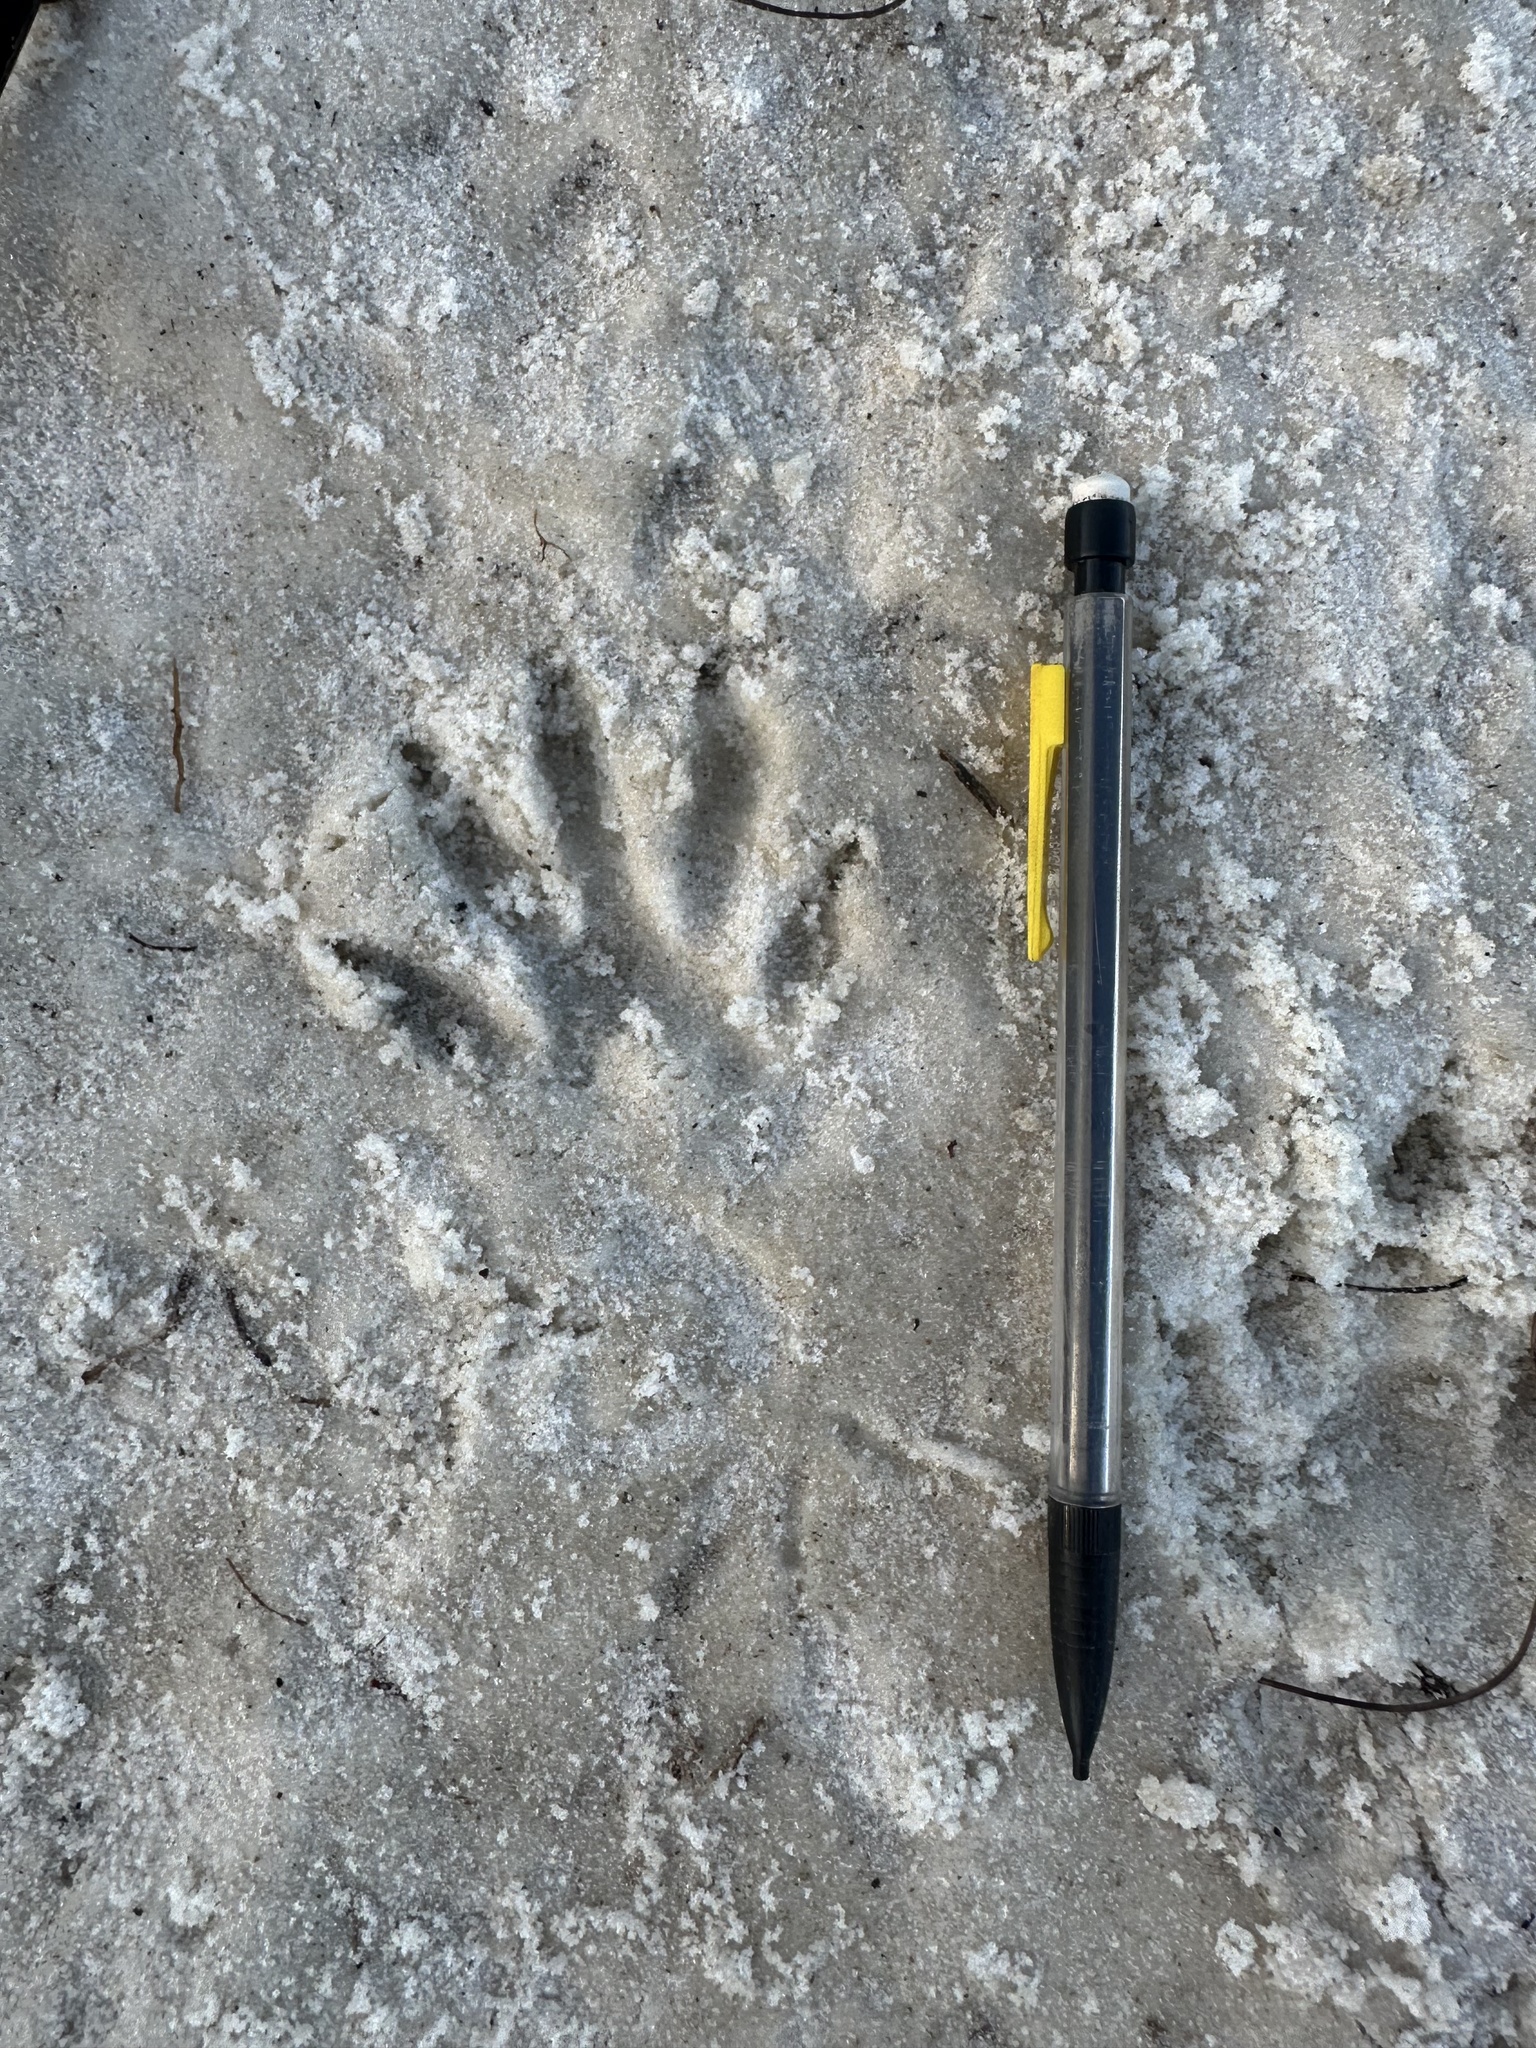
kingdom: Animalia
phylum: Chordata
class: Mammalia
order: Carnivora
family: Procyonidae
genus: Procyon
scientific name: Procyon lotor
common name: Raccoon
